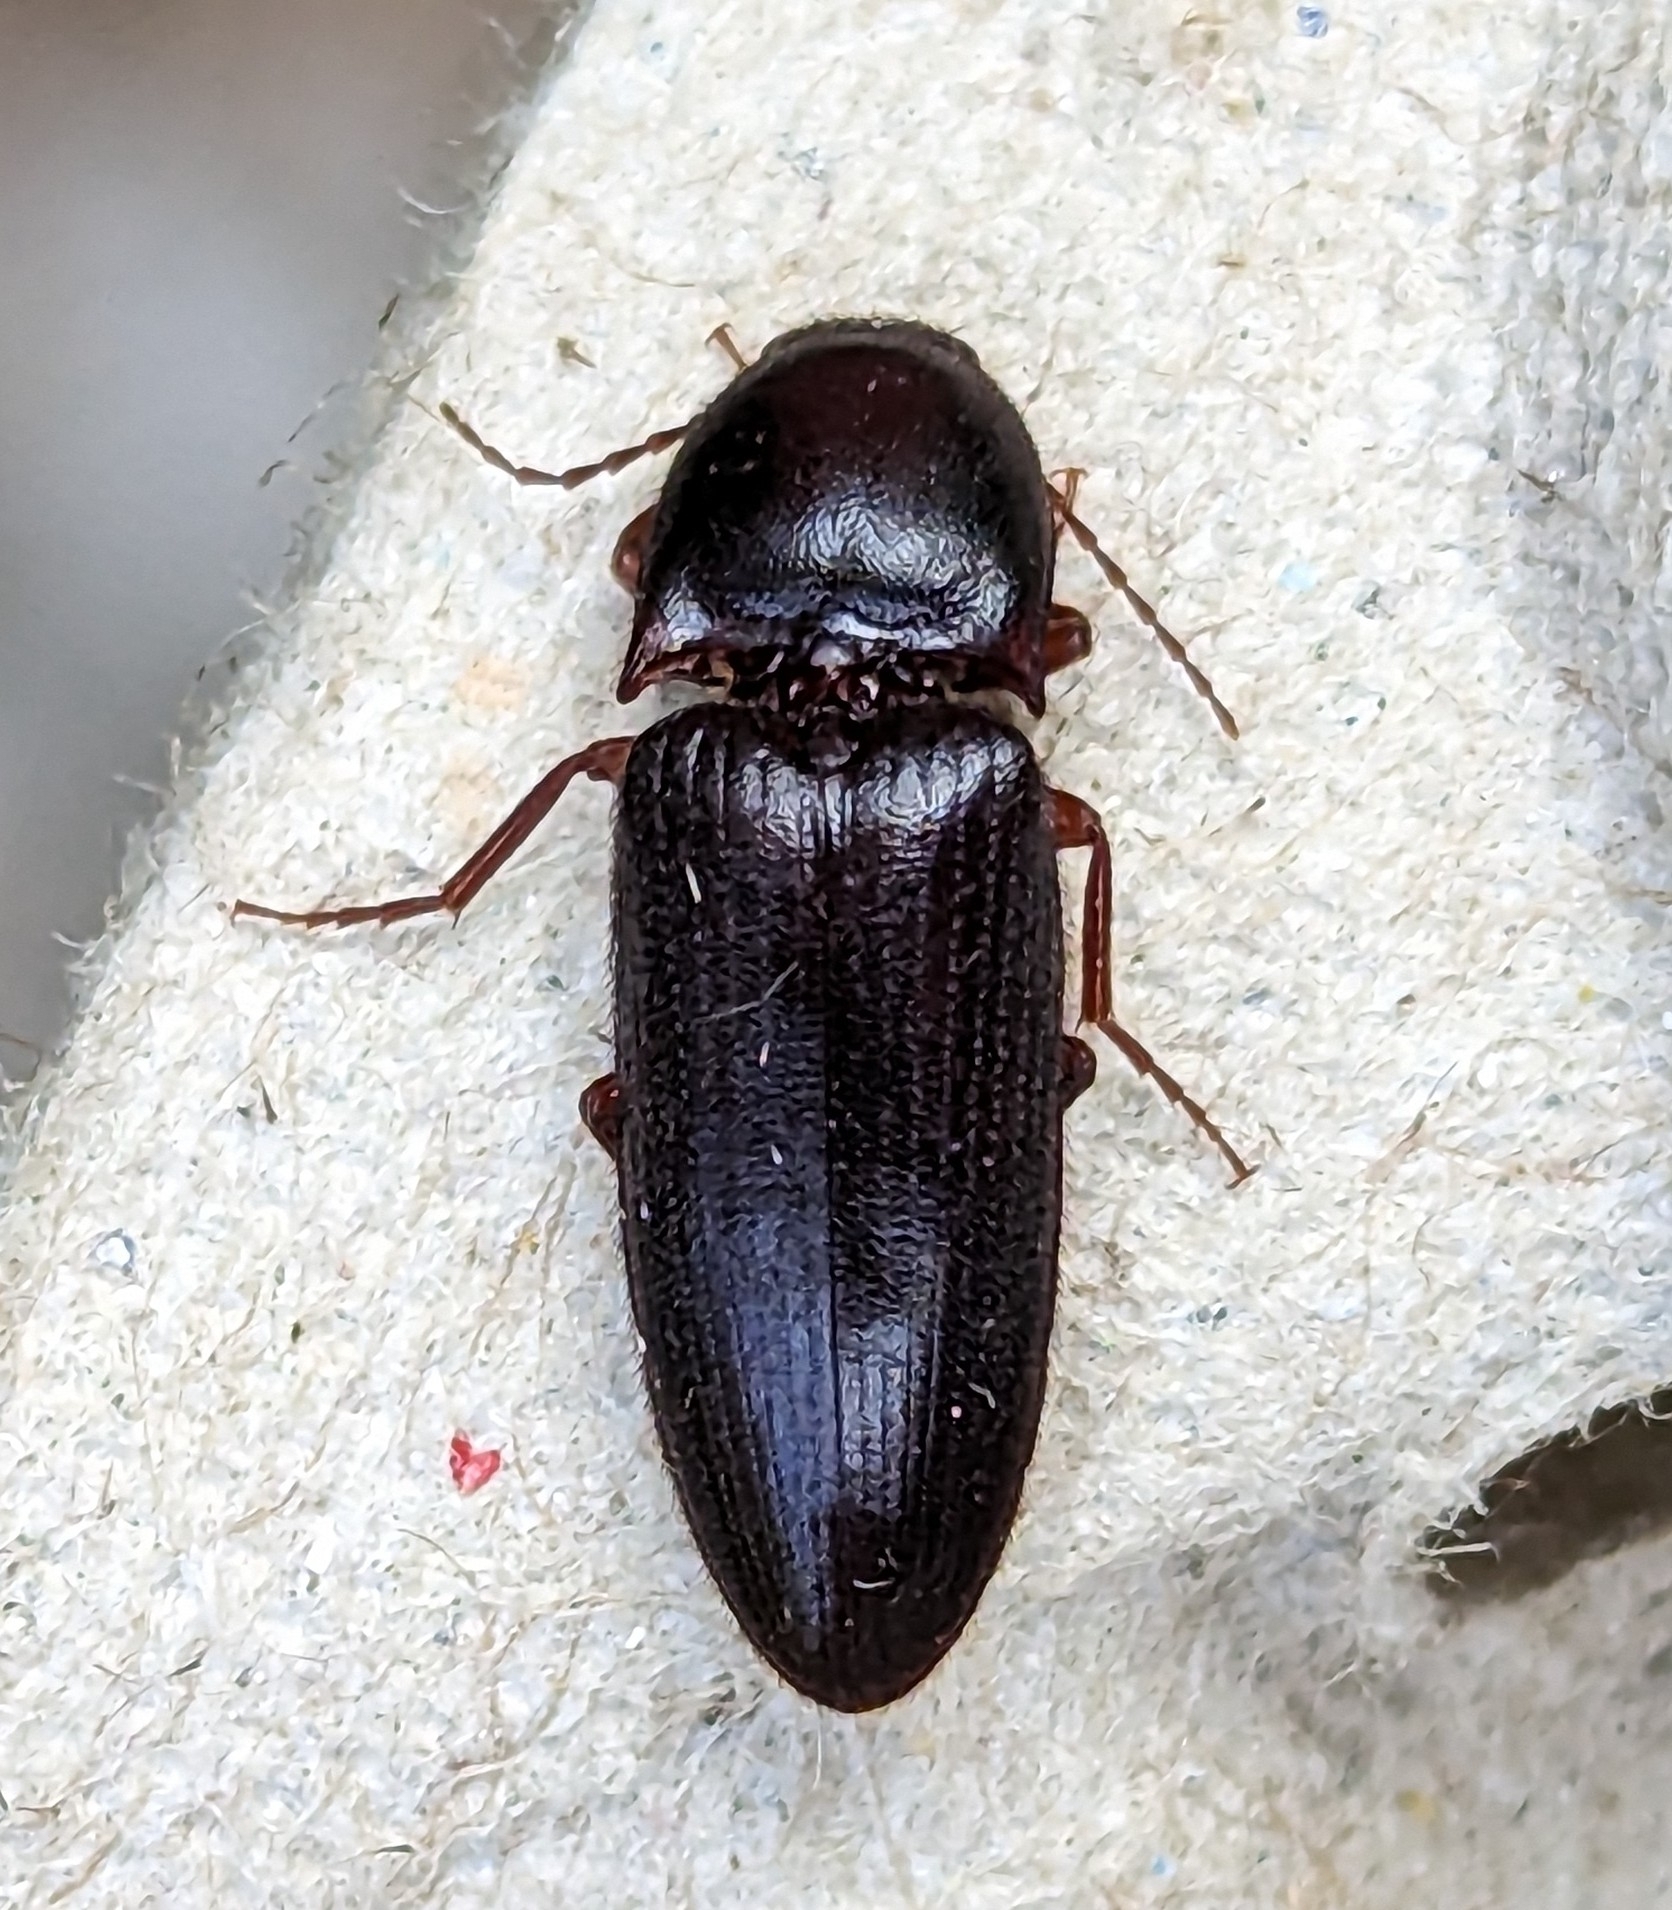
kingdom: Animalia
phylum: Arthropoda
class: Insecta
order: Coleoptera
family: Elateridae
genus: Ampedus
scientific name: Ampedus rhodopus
